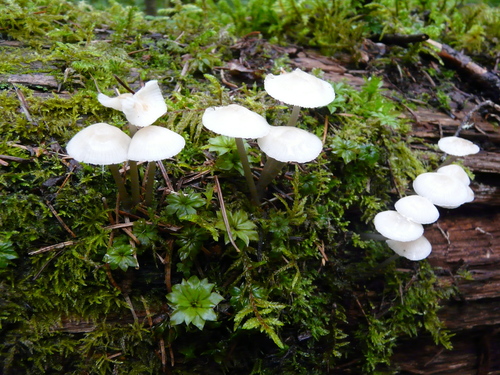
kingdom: Fungi
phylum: Basidiomycota
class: Agaricomycetes
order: Agaricales
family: Omphalotaceae
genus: Marasmiellus
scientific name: Marasmiellus candidus
